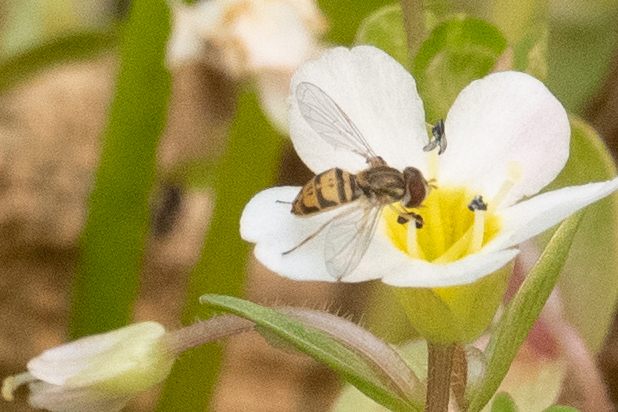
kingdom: Animalia
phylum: Arthropoda
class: Insecta
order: Diptera
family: Syrphidae
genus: Toxomerus
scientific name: Toxomerus marginatus
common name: Syrphid fly
